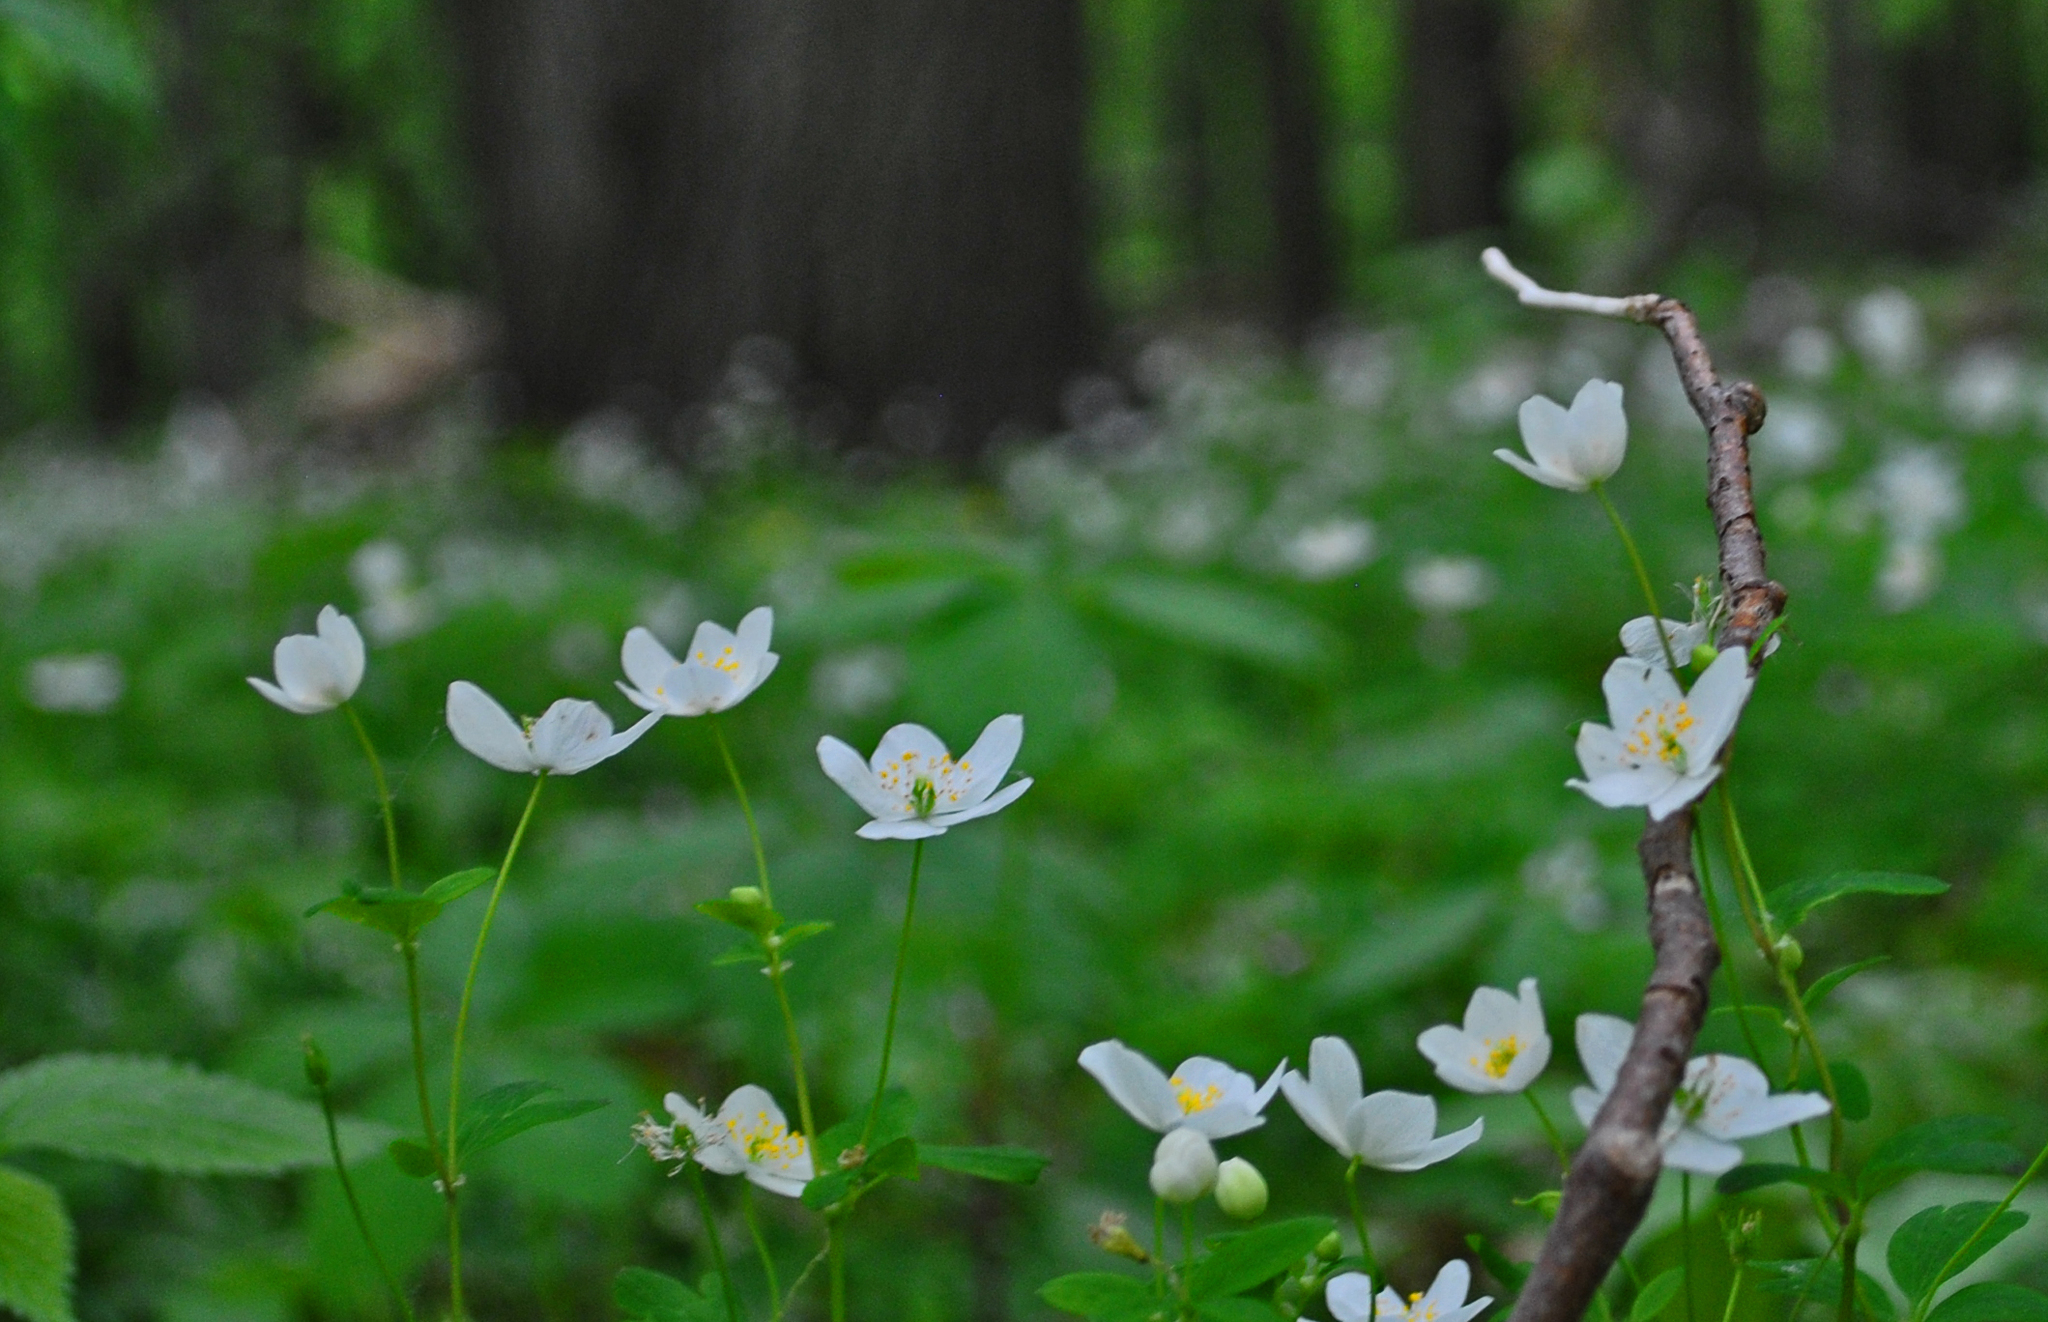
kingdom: Plantae
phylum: Tracheophyta
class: Magnoliopsida
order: Ranunculales
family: Ranunculaceae
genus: Enemion
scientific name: Enemion biternatum
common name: Eastern false rue-anemone
